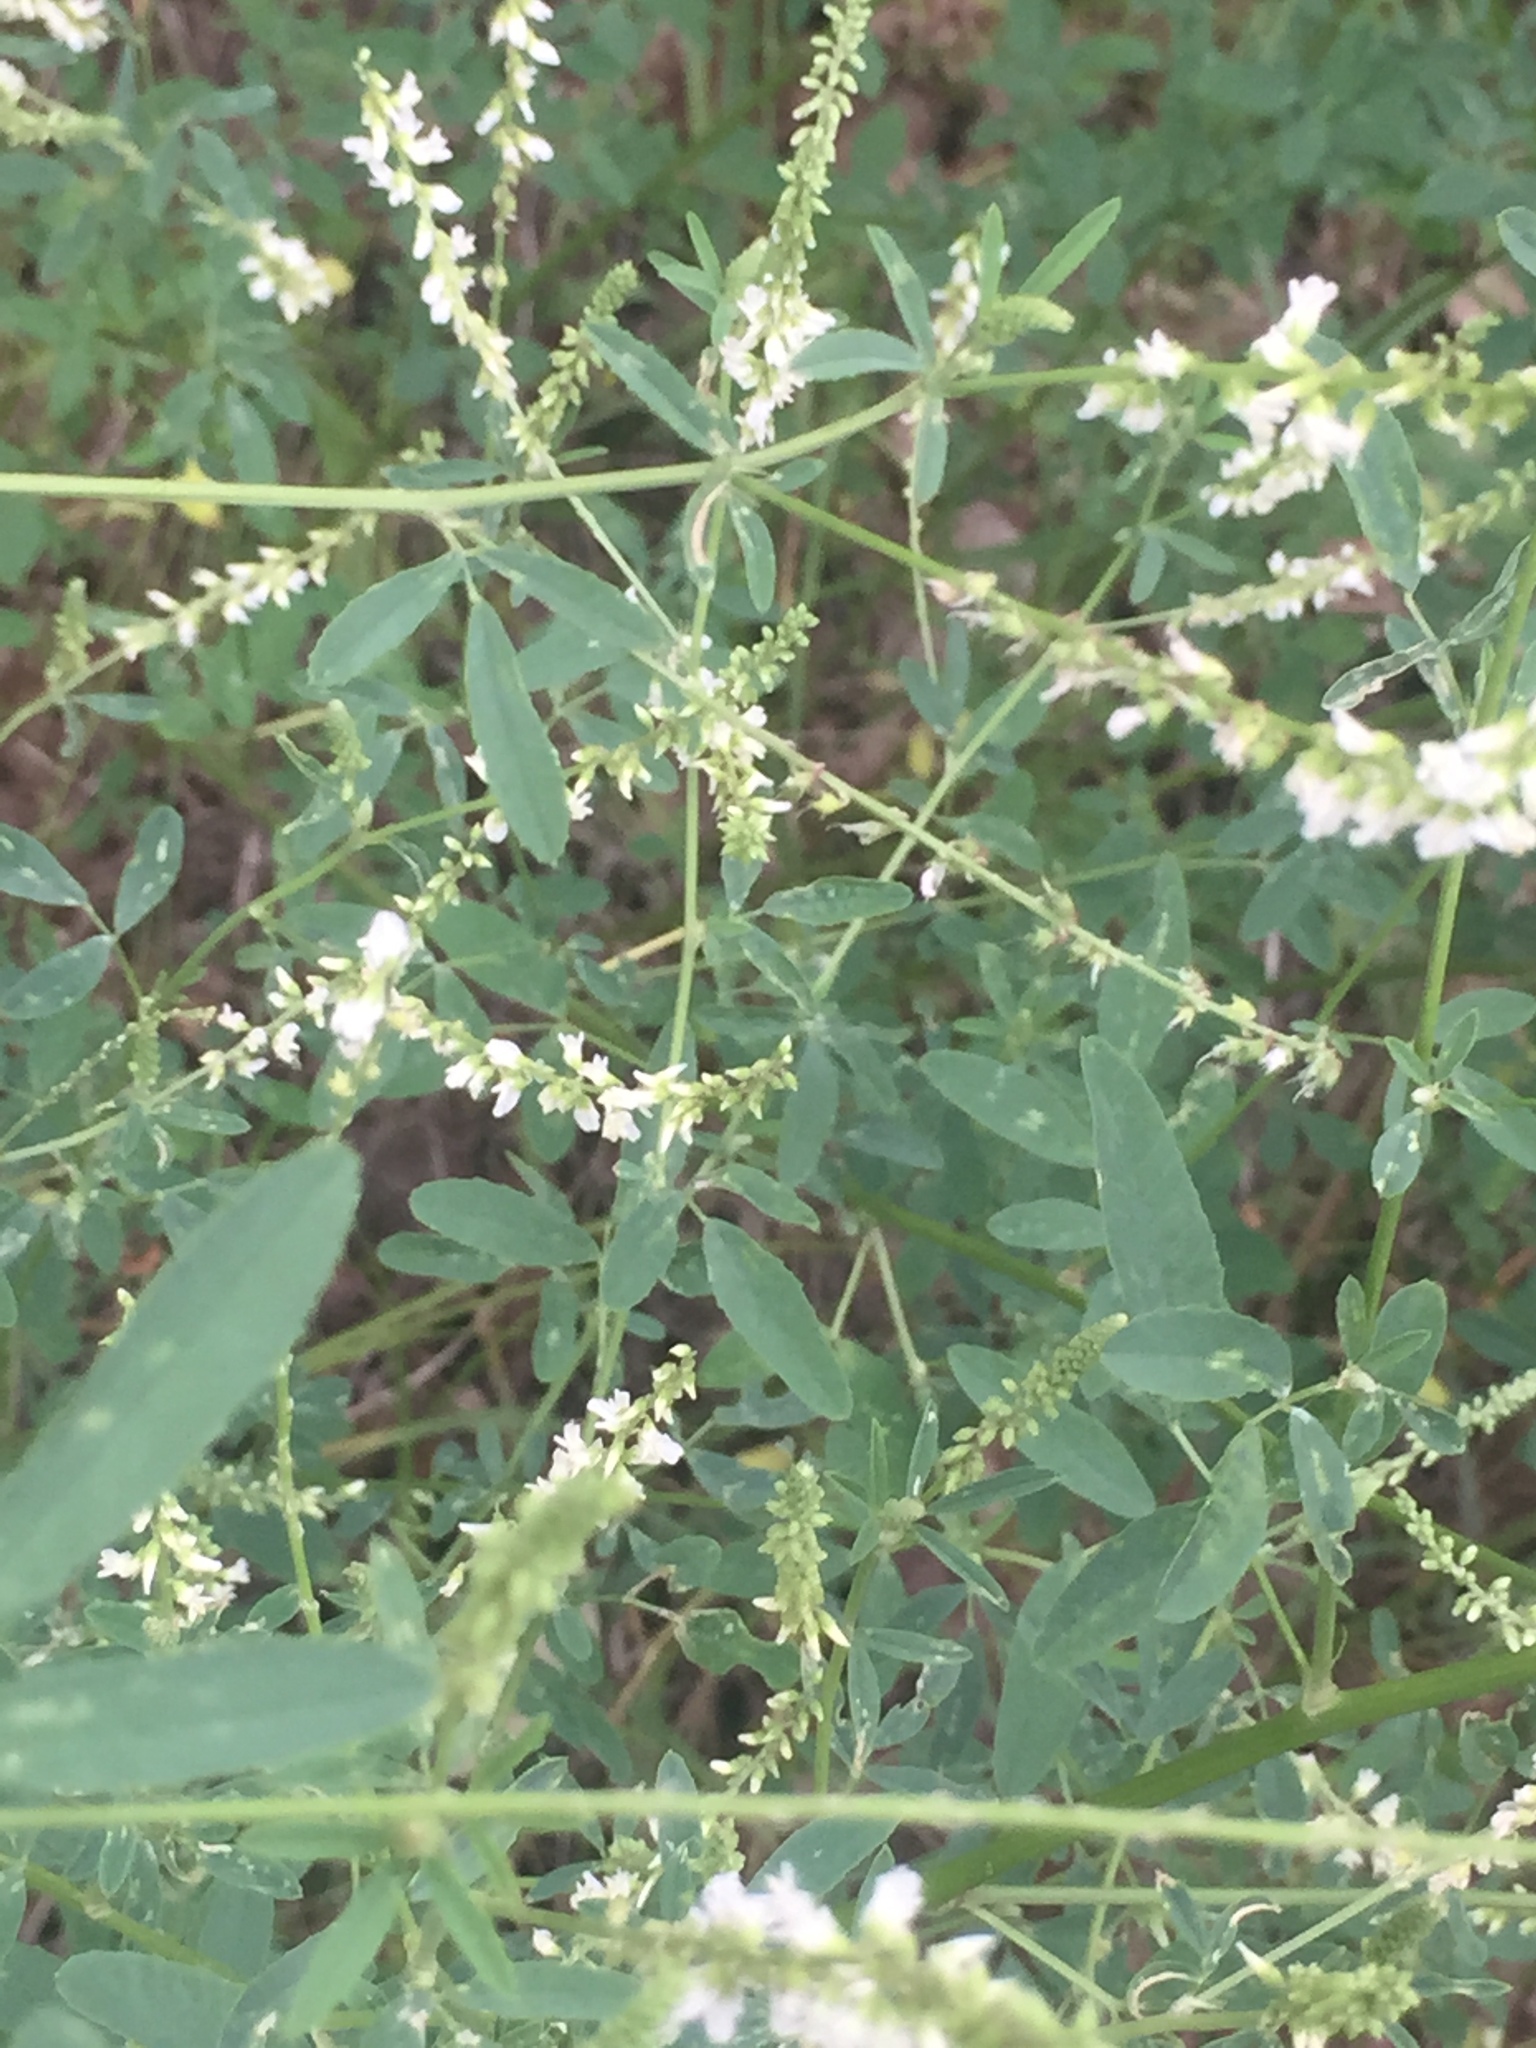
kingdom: Plantae
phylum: Tracheophyta
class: Magnoliopsida
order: Fabales
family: Fabaceae
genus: Melilotus
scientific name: Melilotus albus
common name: White melilot
